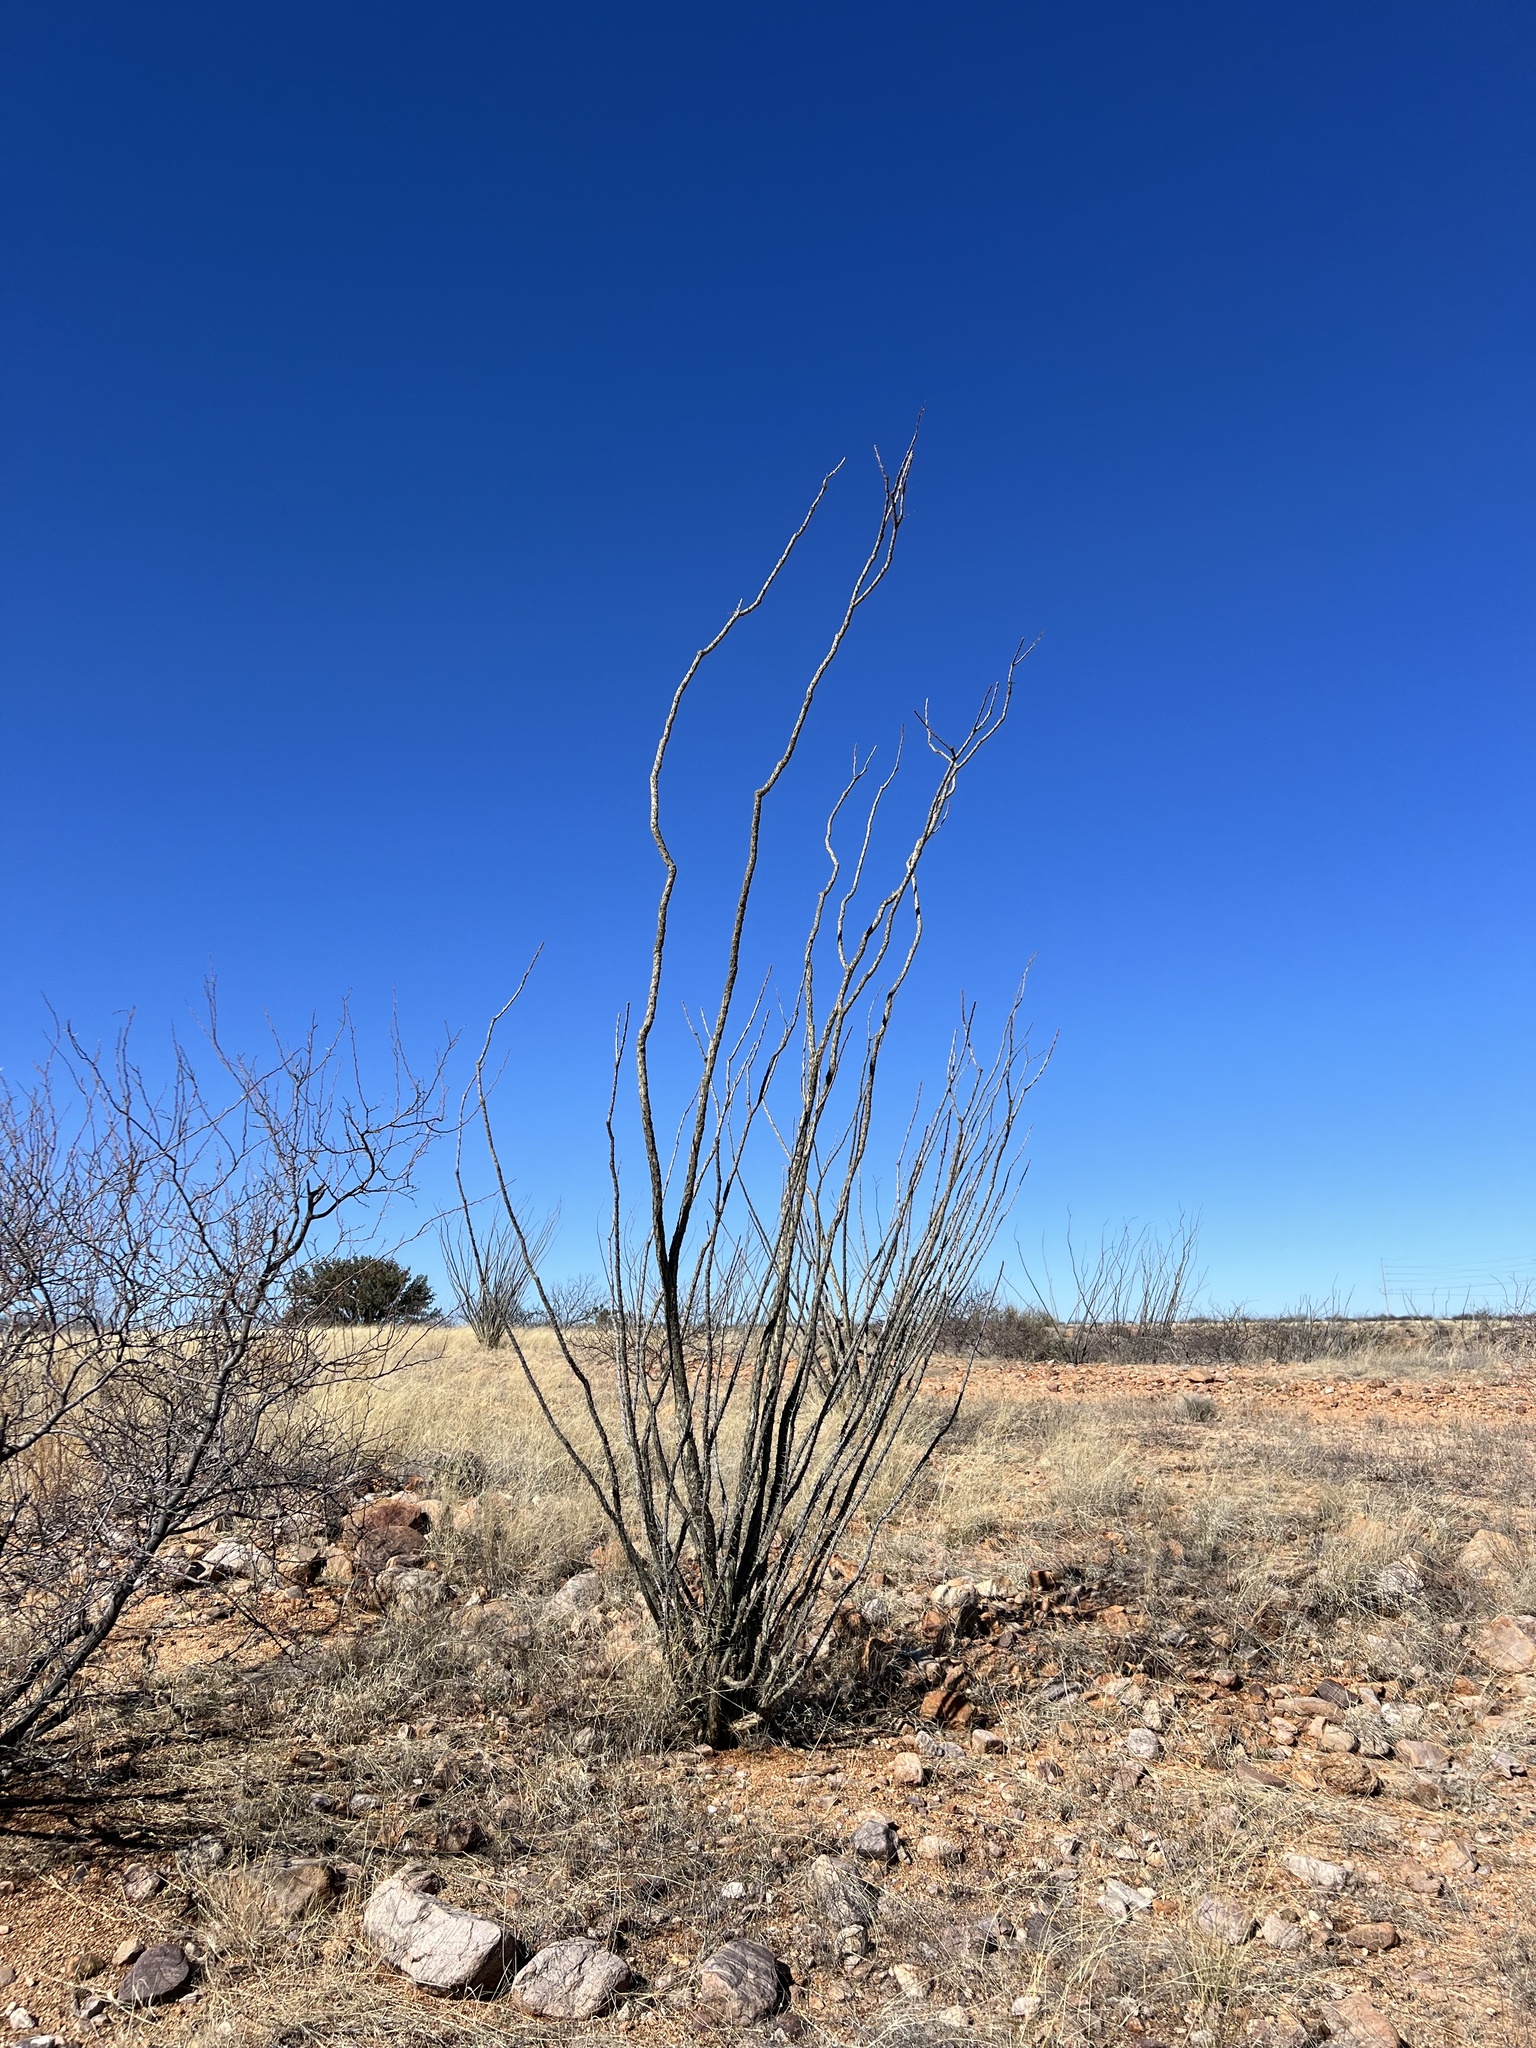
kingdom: Plantae
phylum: Tracheophyta
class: Magnoliopsida
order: Ericales
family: Fouquieriaceae
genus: Fouquieria
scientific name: Fouquieria splendens
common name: Vine-cactus
